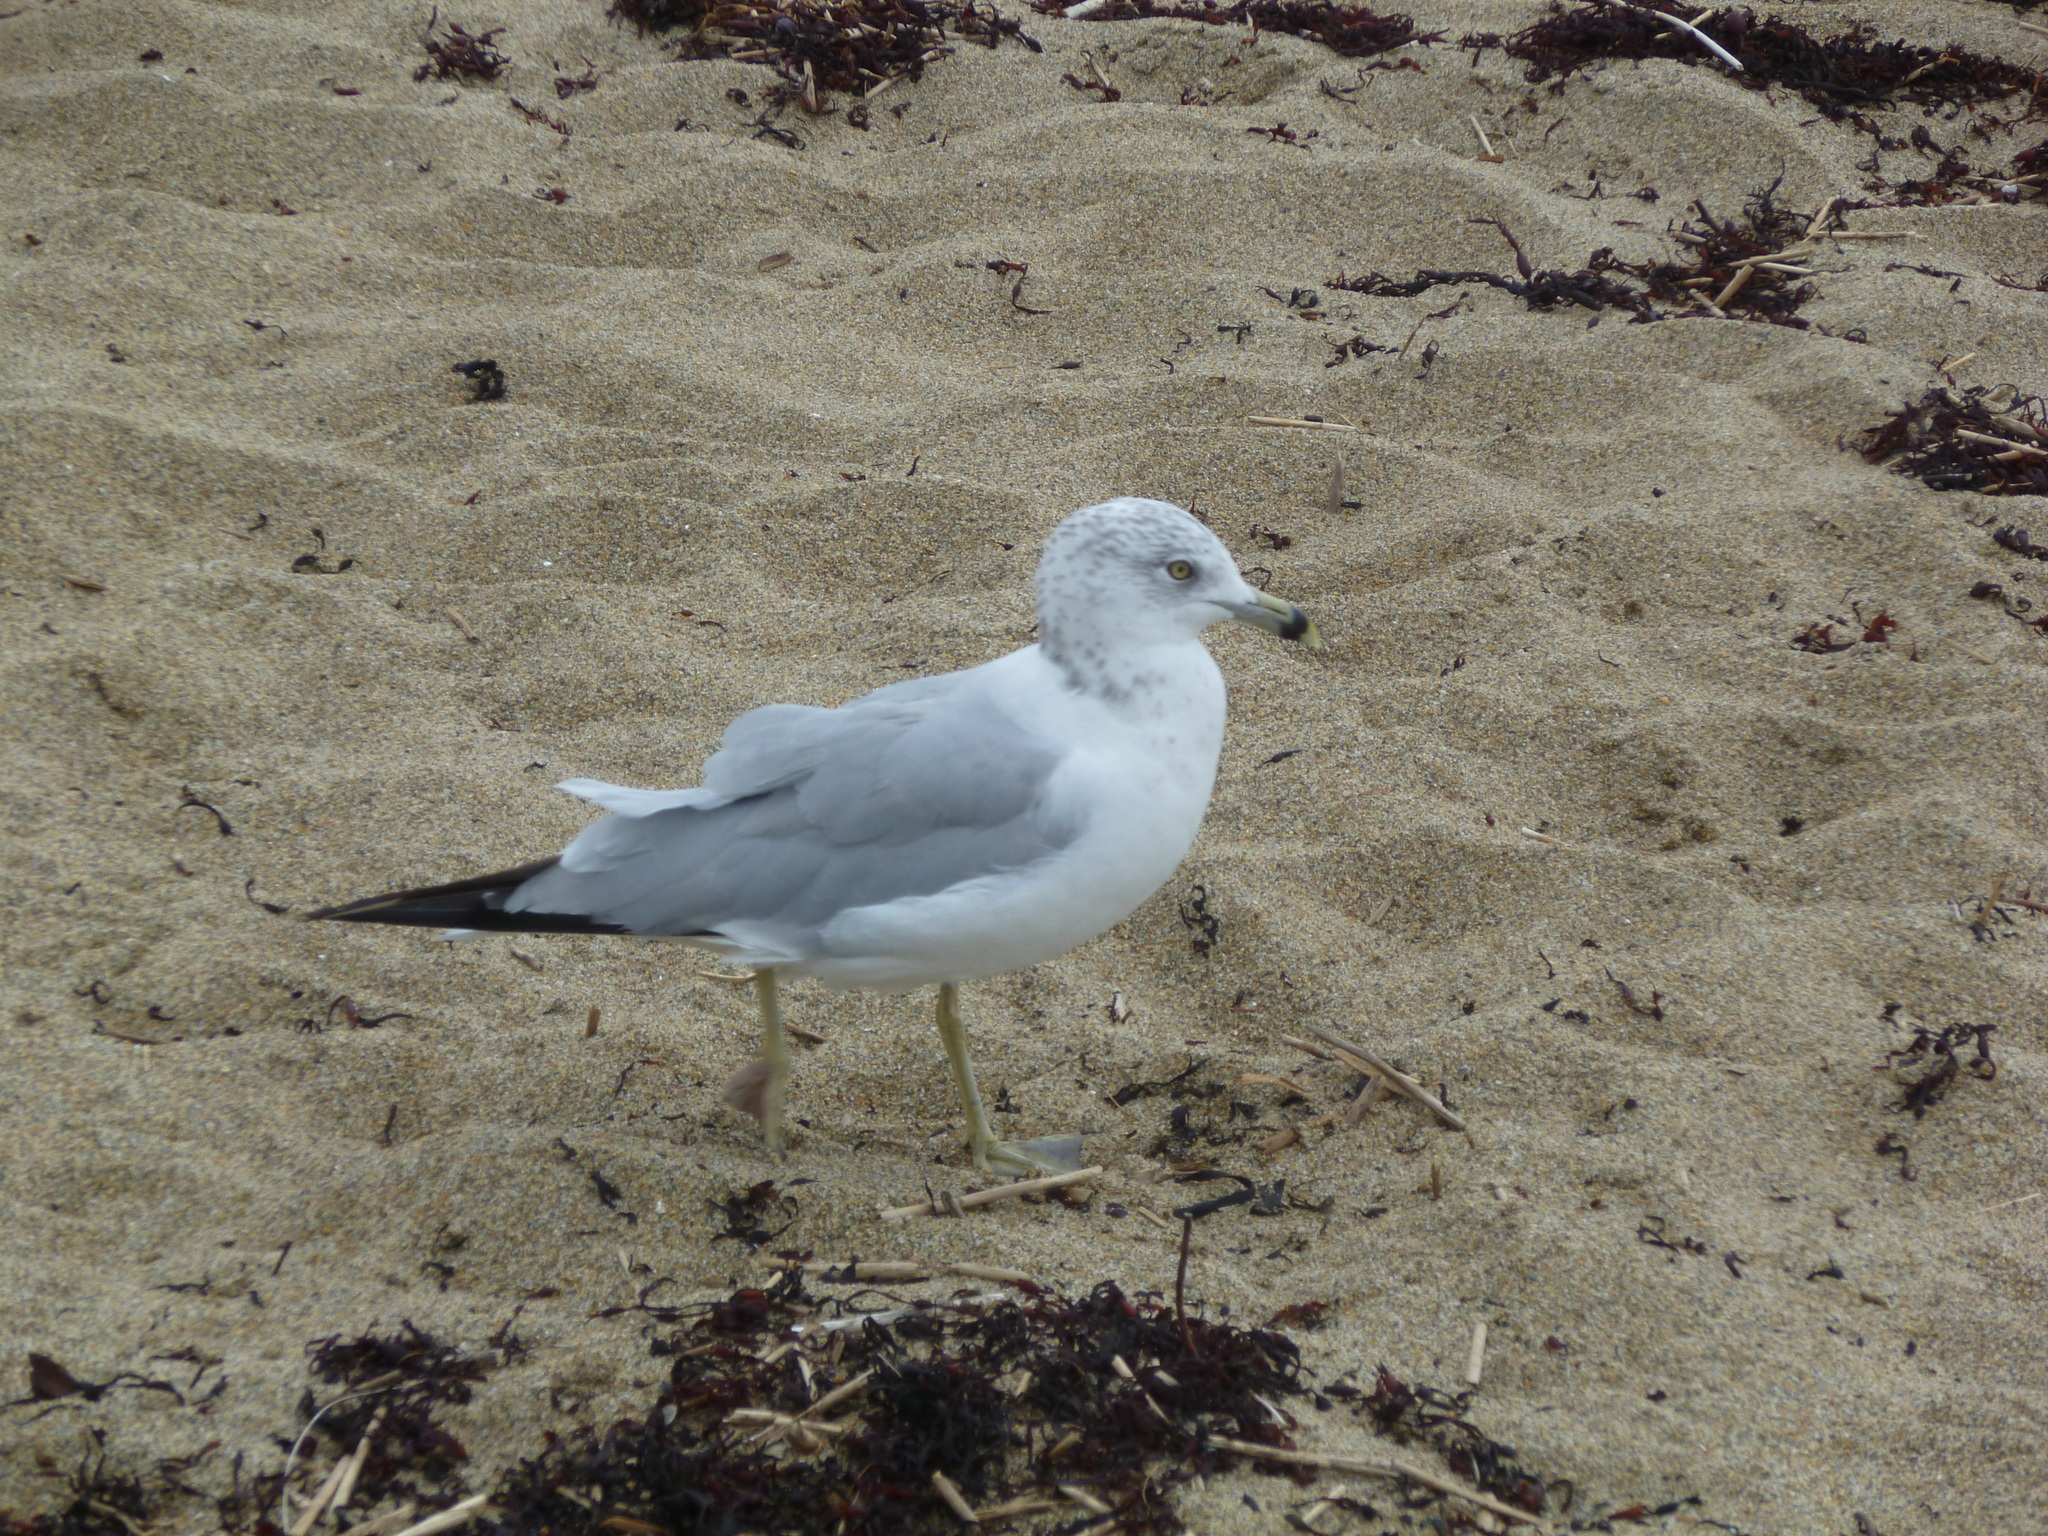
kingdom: Animalia
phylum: Chordata
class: Aves
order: Charadriiformes
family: Laridae
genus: Larus
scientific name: Larus delawarensis
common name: Ring-billed gull
